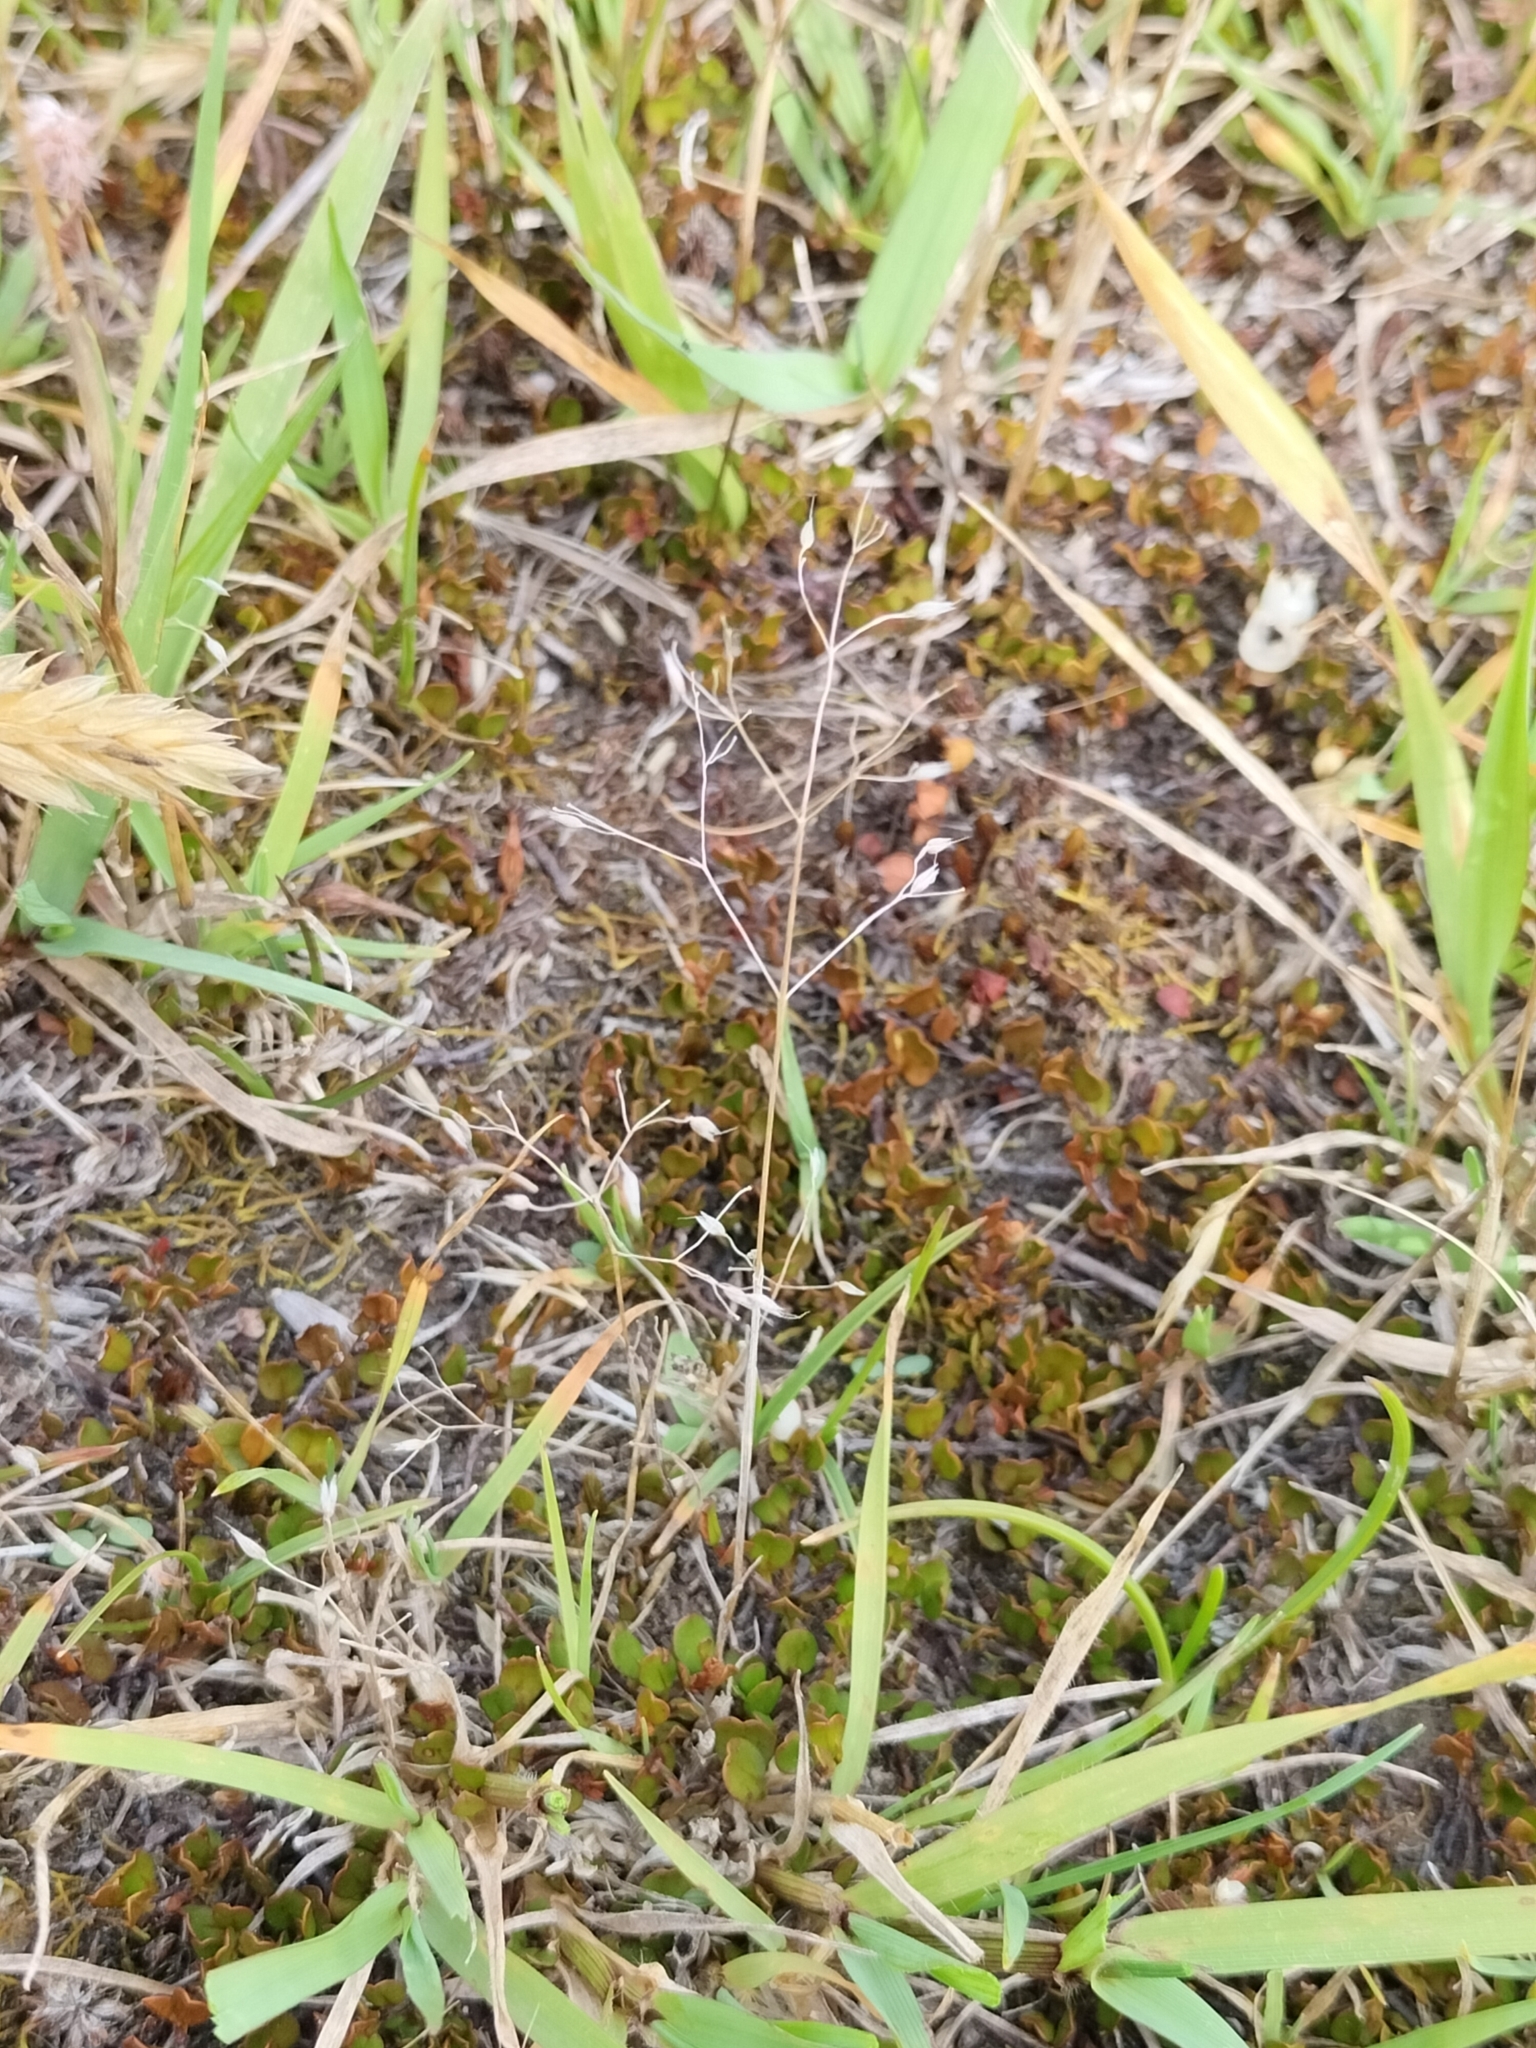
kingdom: Plantae
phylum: Tracheophyta
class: Liliopsida
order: Poales
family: Poaceae
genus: Aira
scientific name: Aira caryophyllea
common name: Silver hairgrass
